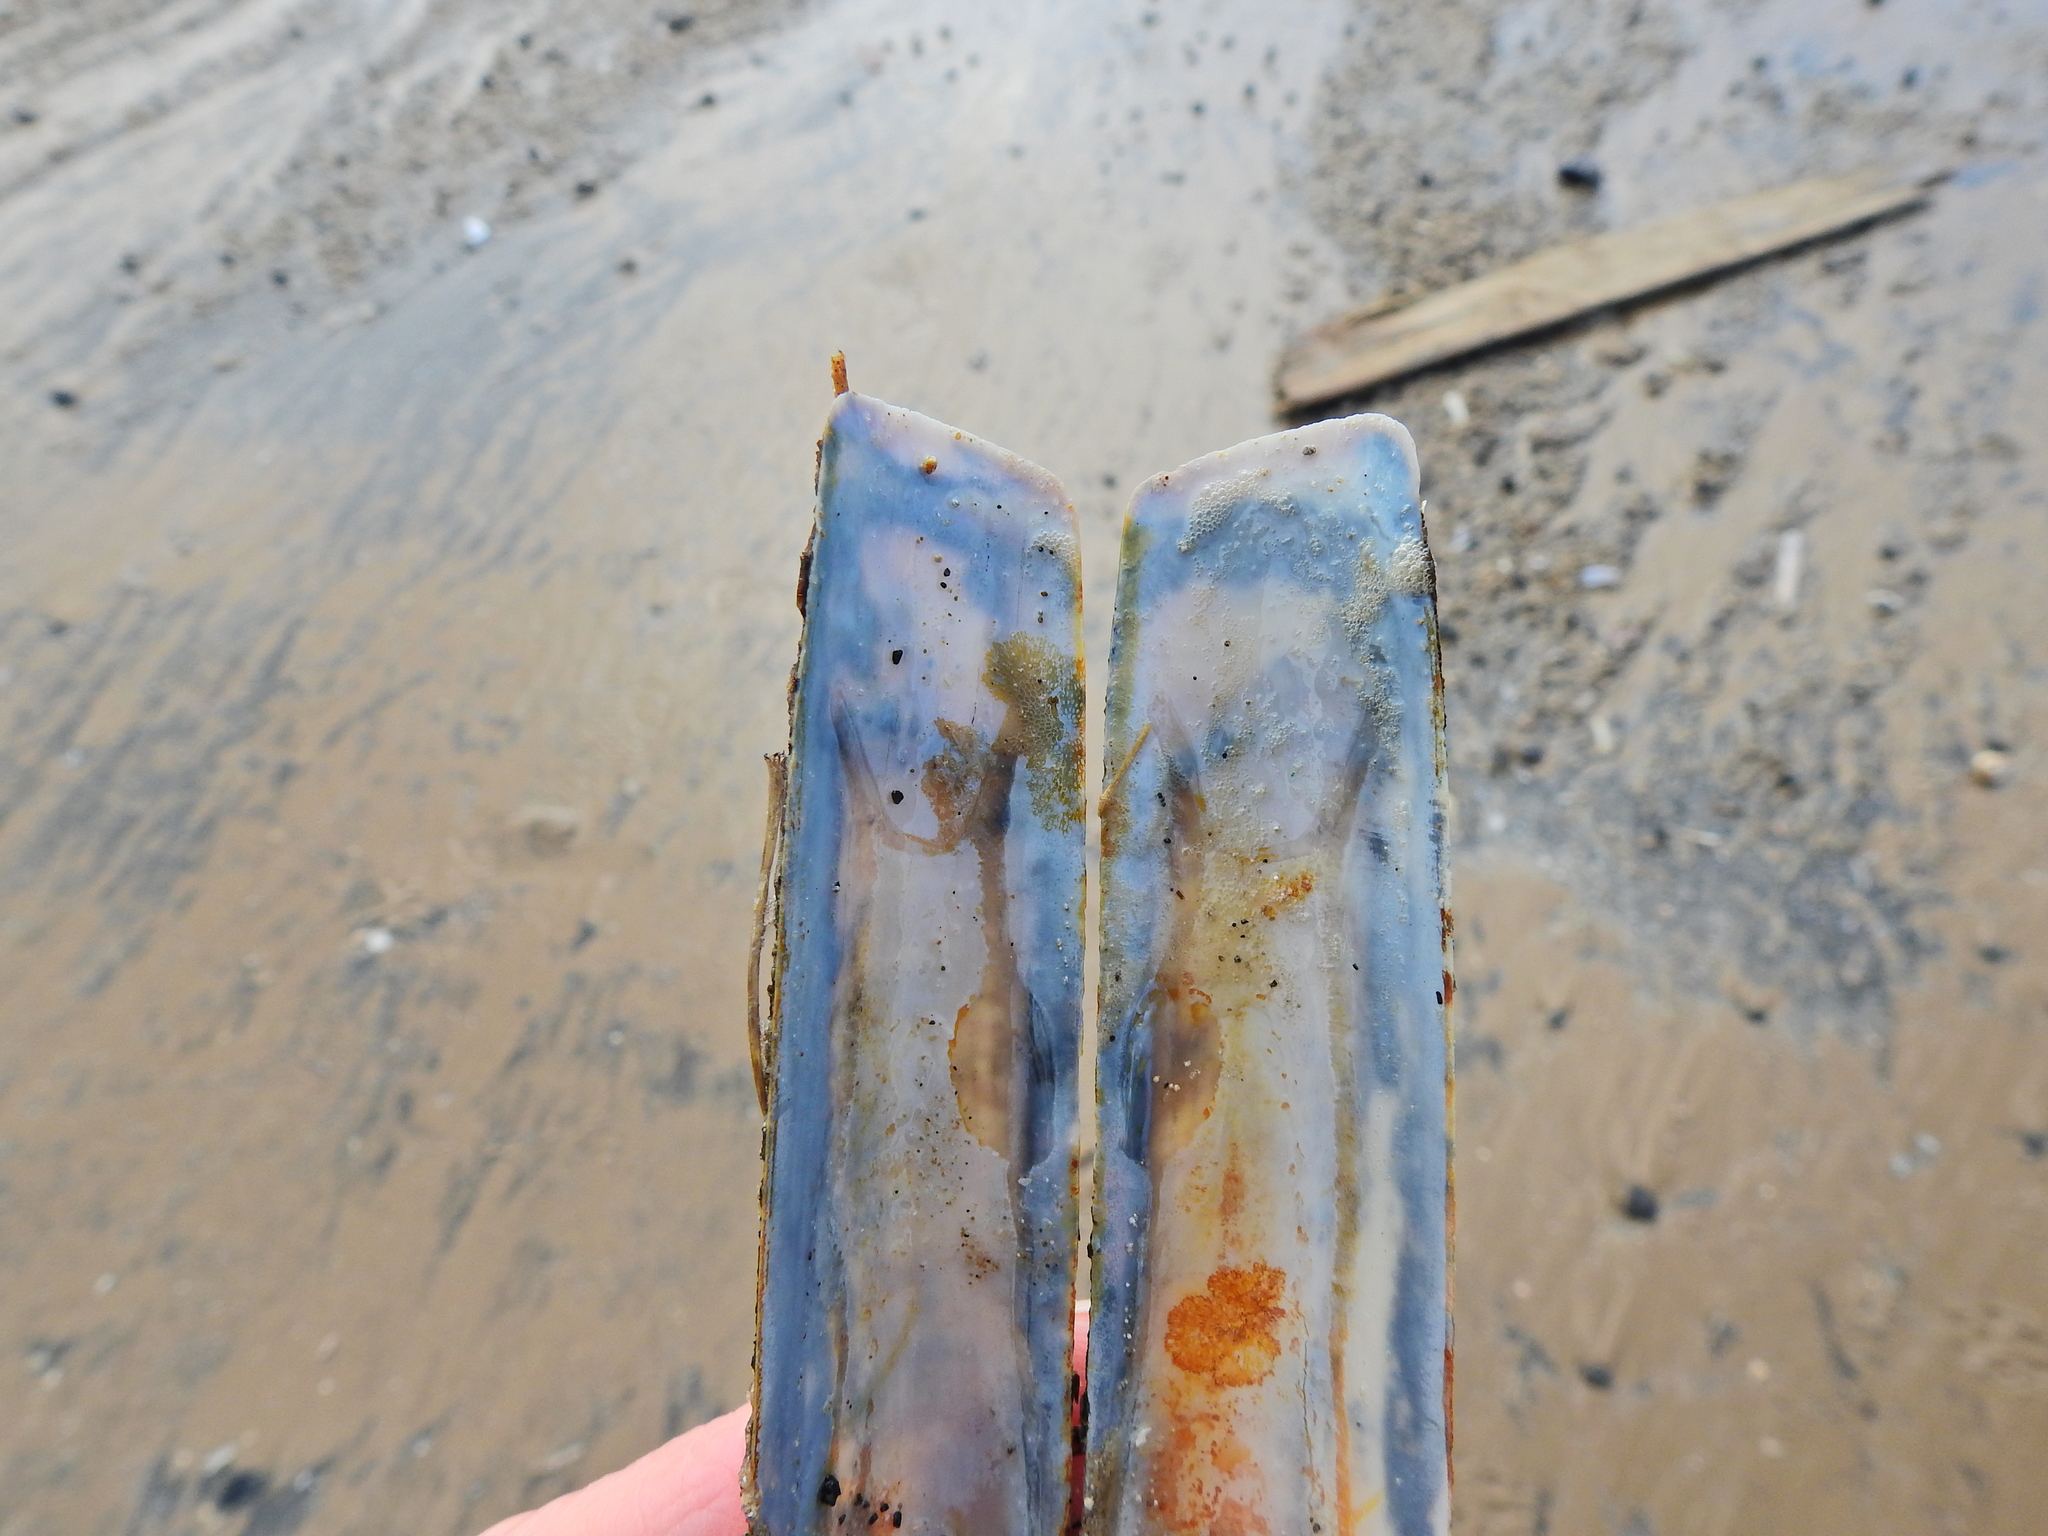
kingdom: Animalia
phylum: Mollusca
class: Bivalvia
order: Adapedonta
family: Pharidae
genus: Ensis
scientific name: Ensis magnus
